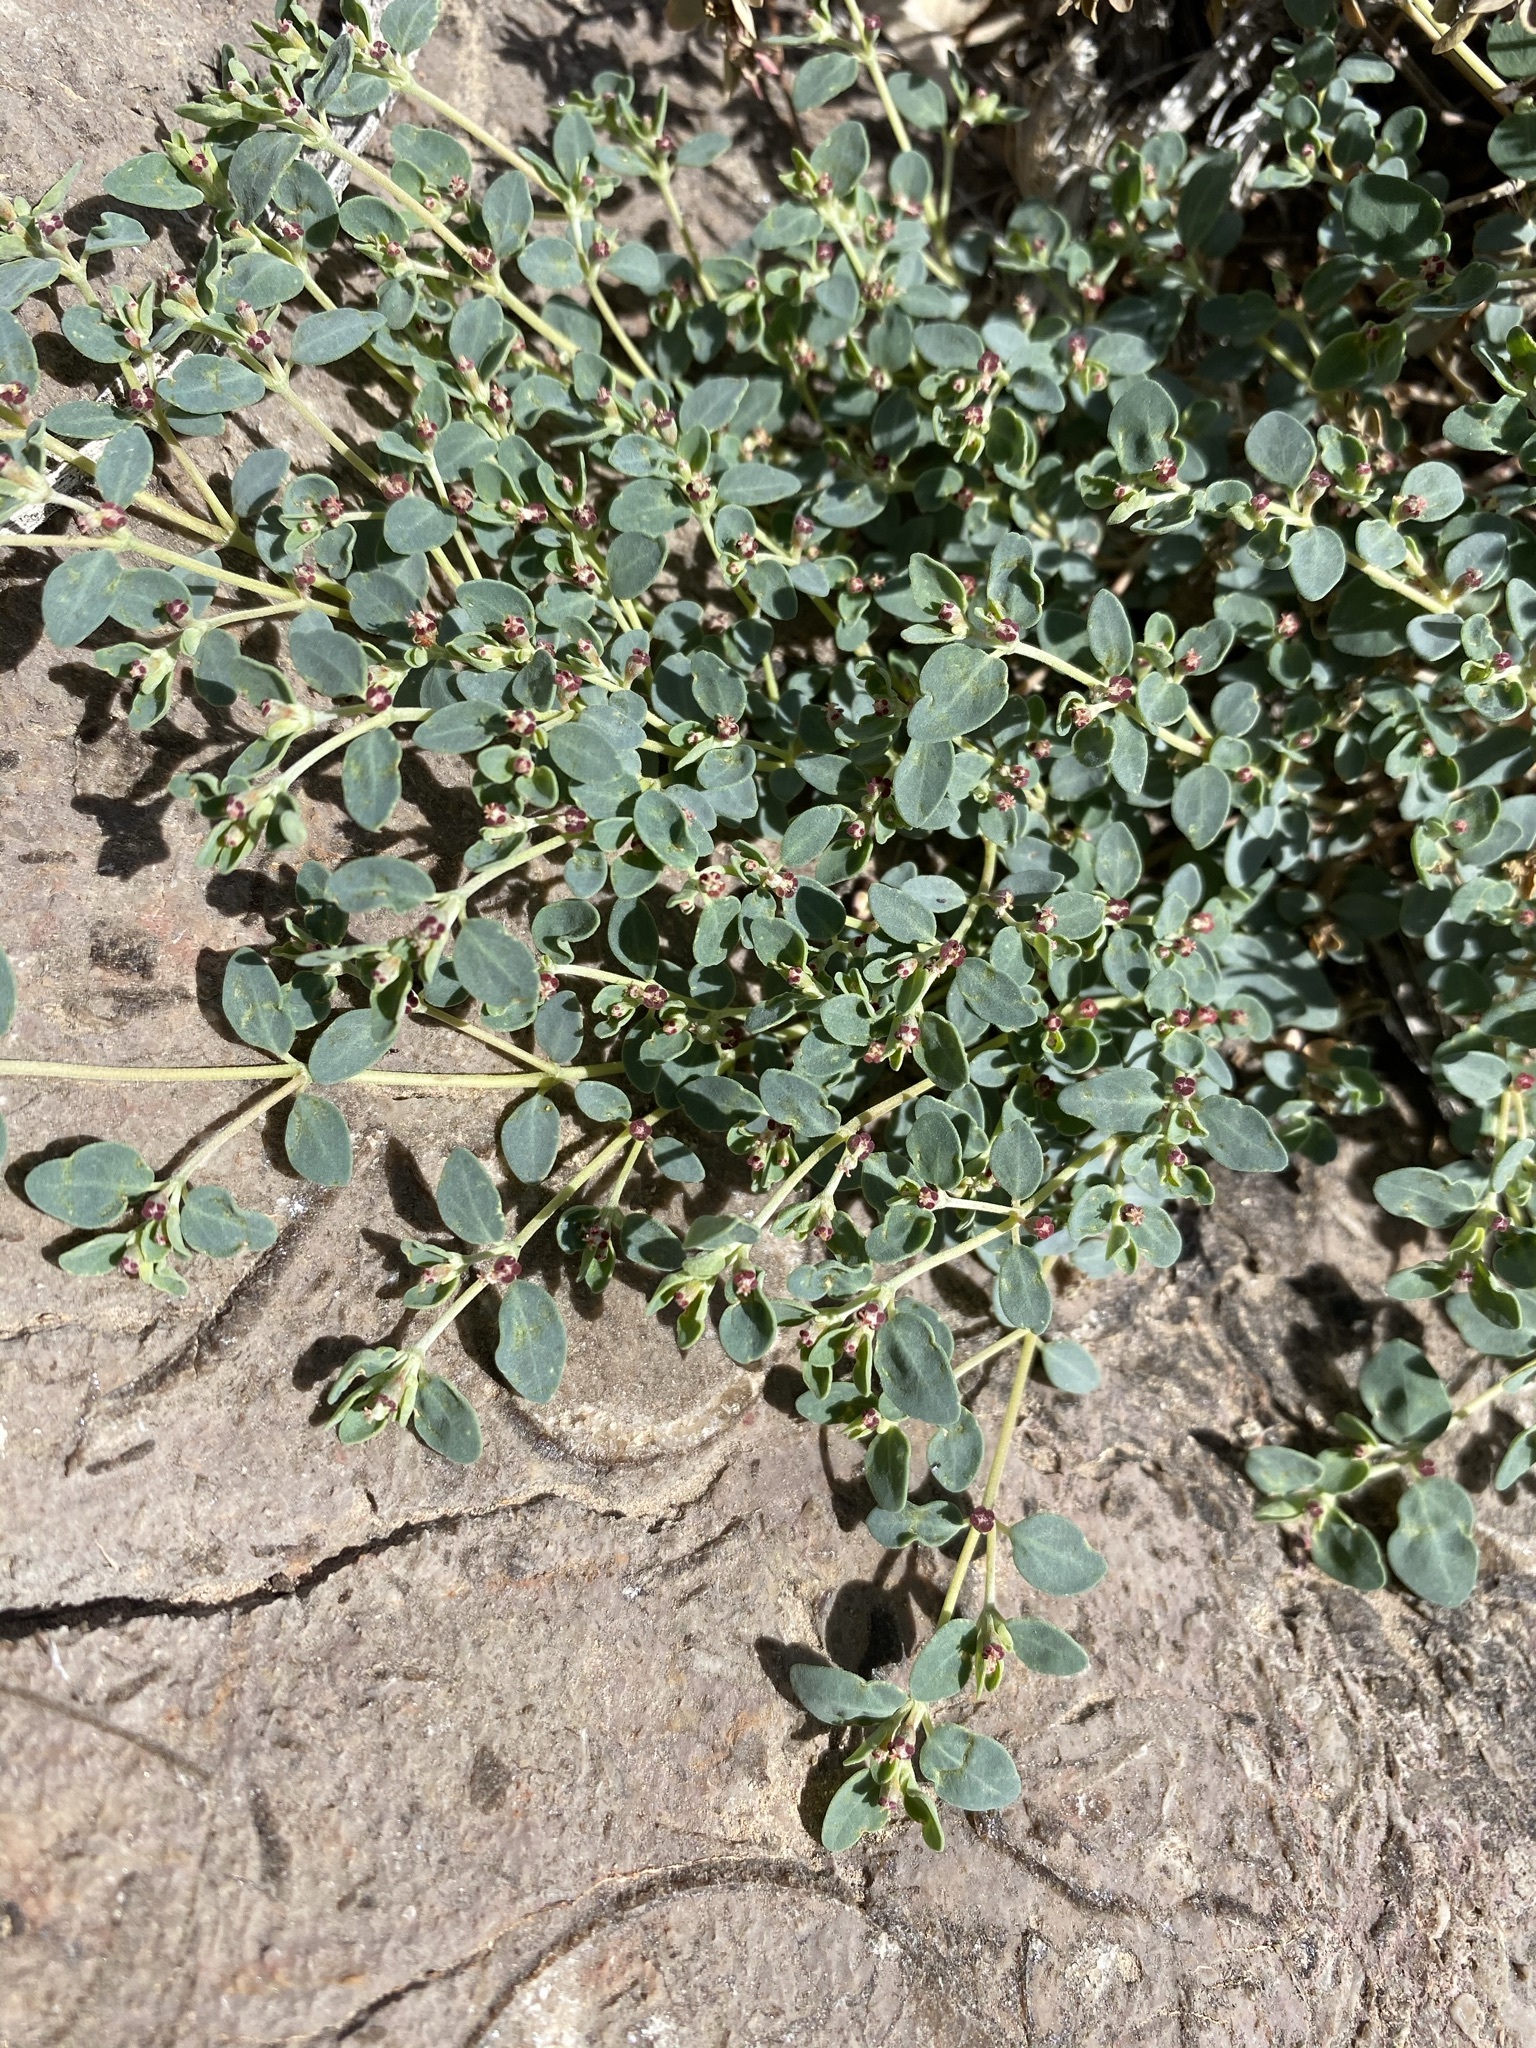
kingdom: Plantae
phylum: Tracheophyta
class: Magnoliopsida
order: Malpighiales
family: Euphorbiaceae
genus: Euphorbia
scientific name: Euphorbia cinerascens
